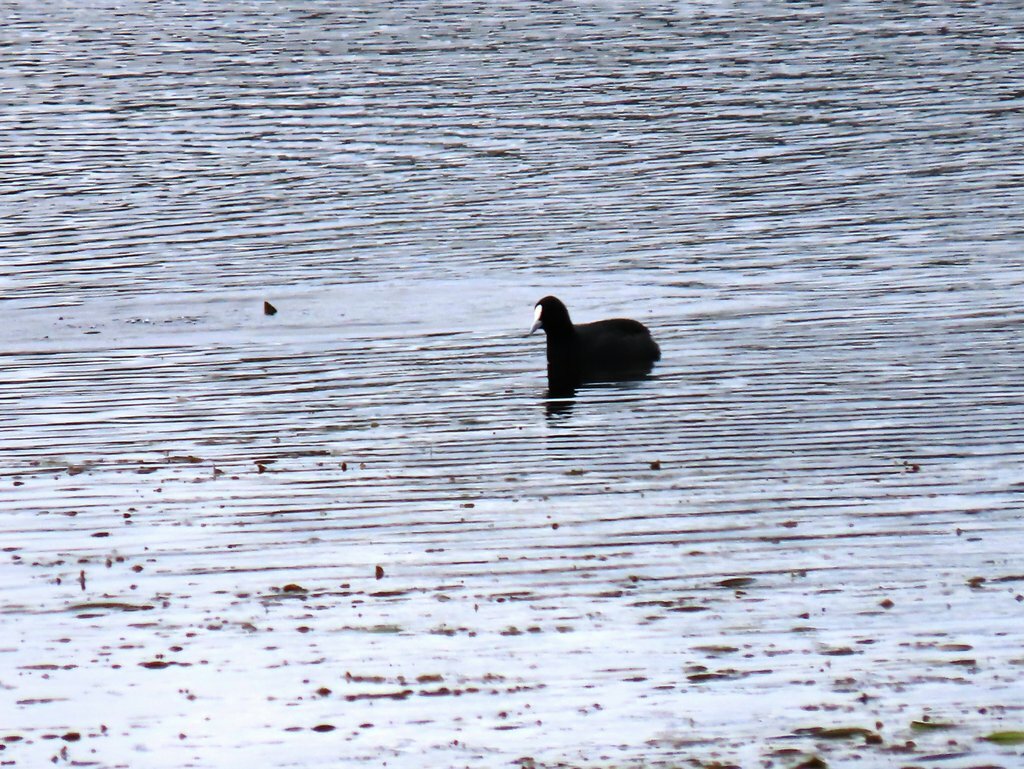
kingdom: Animalia
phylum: Chordata
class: Aves
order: Gruiformes
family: Rallidae
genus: Fulica
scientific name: Fulica atra
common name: Eurasian coot
